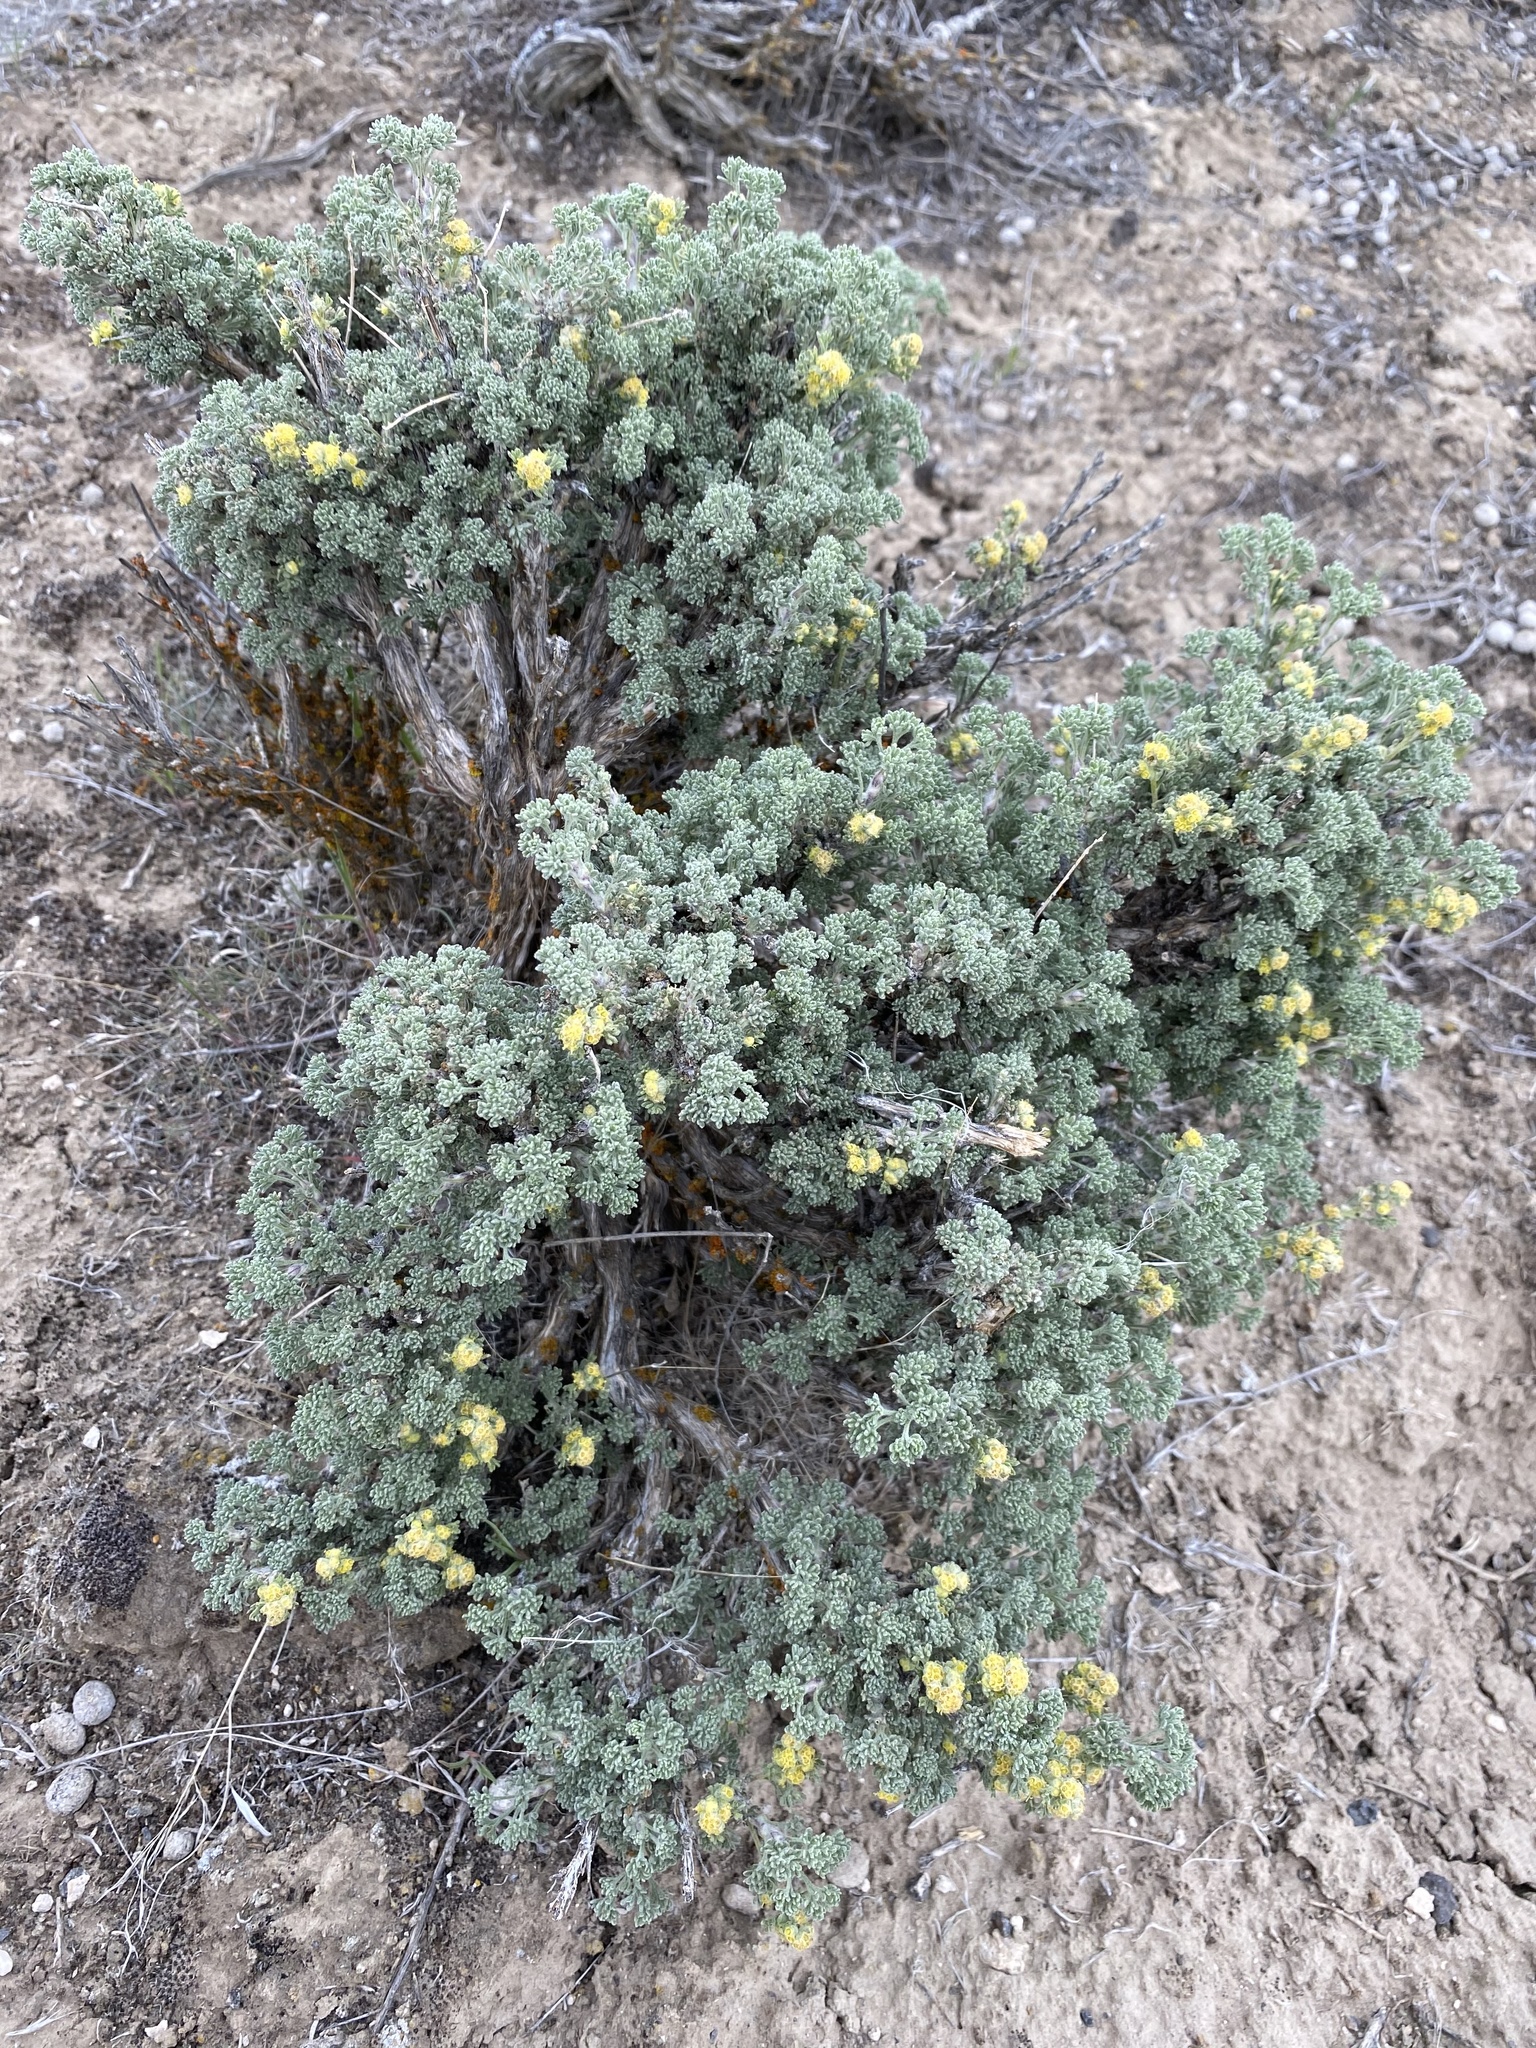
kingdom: Plantae
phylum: Tracheophyta
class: Magnoliopsida
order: Asterales
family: Asteraceae
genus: Artemisia
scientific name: Artemisia spinescens
